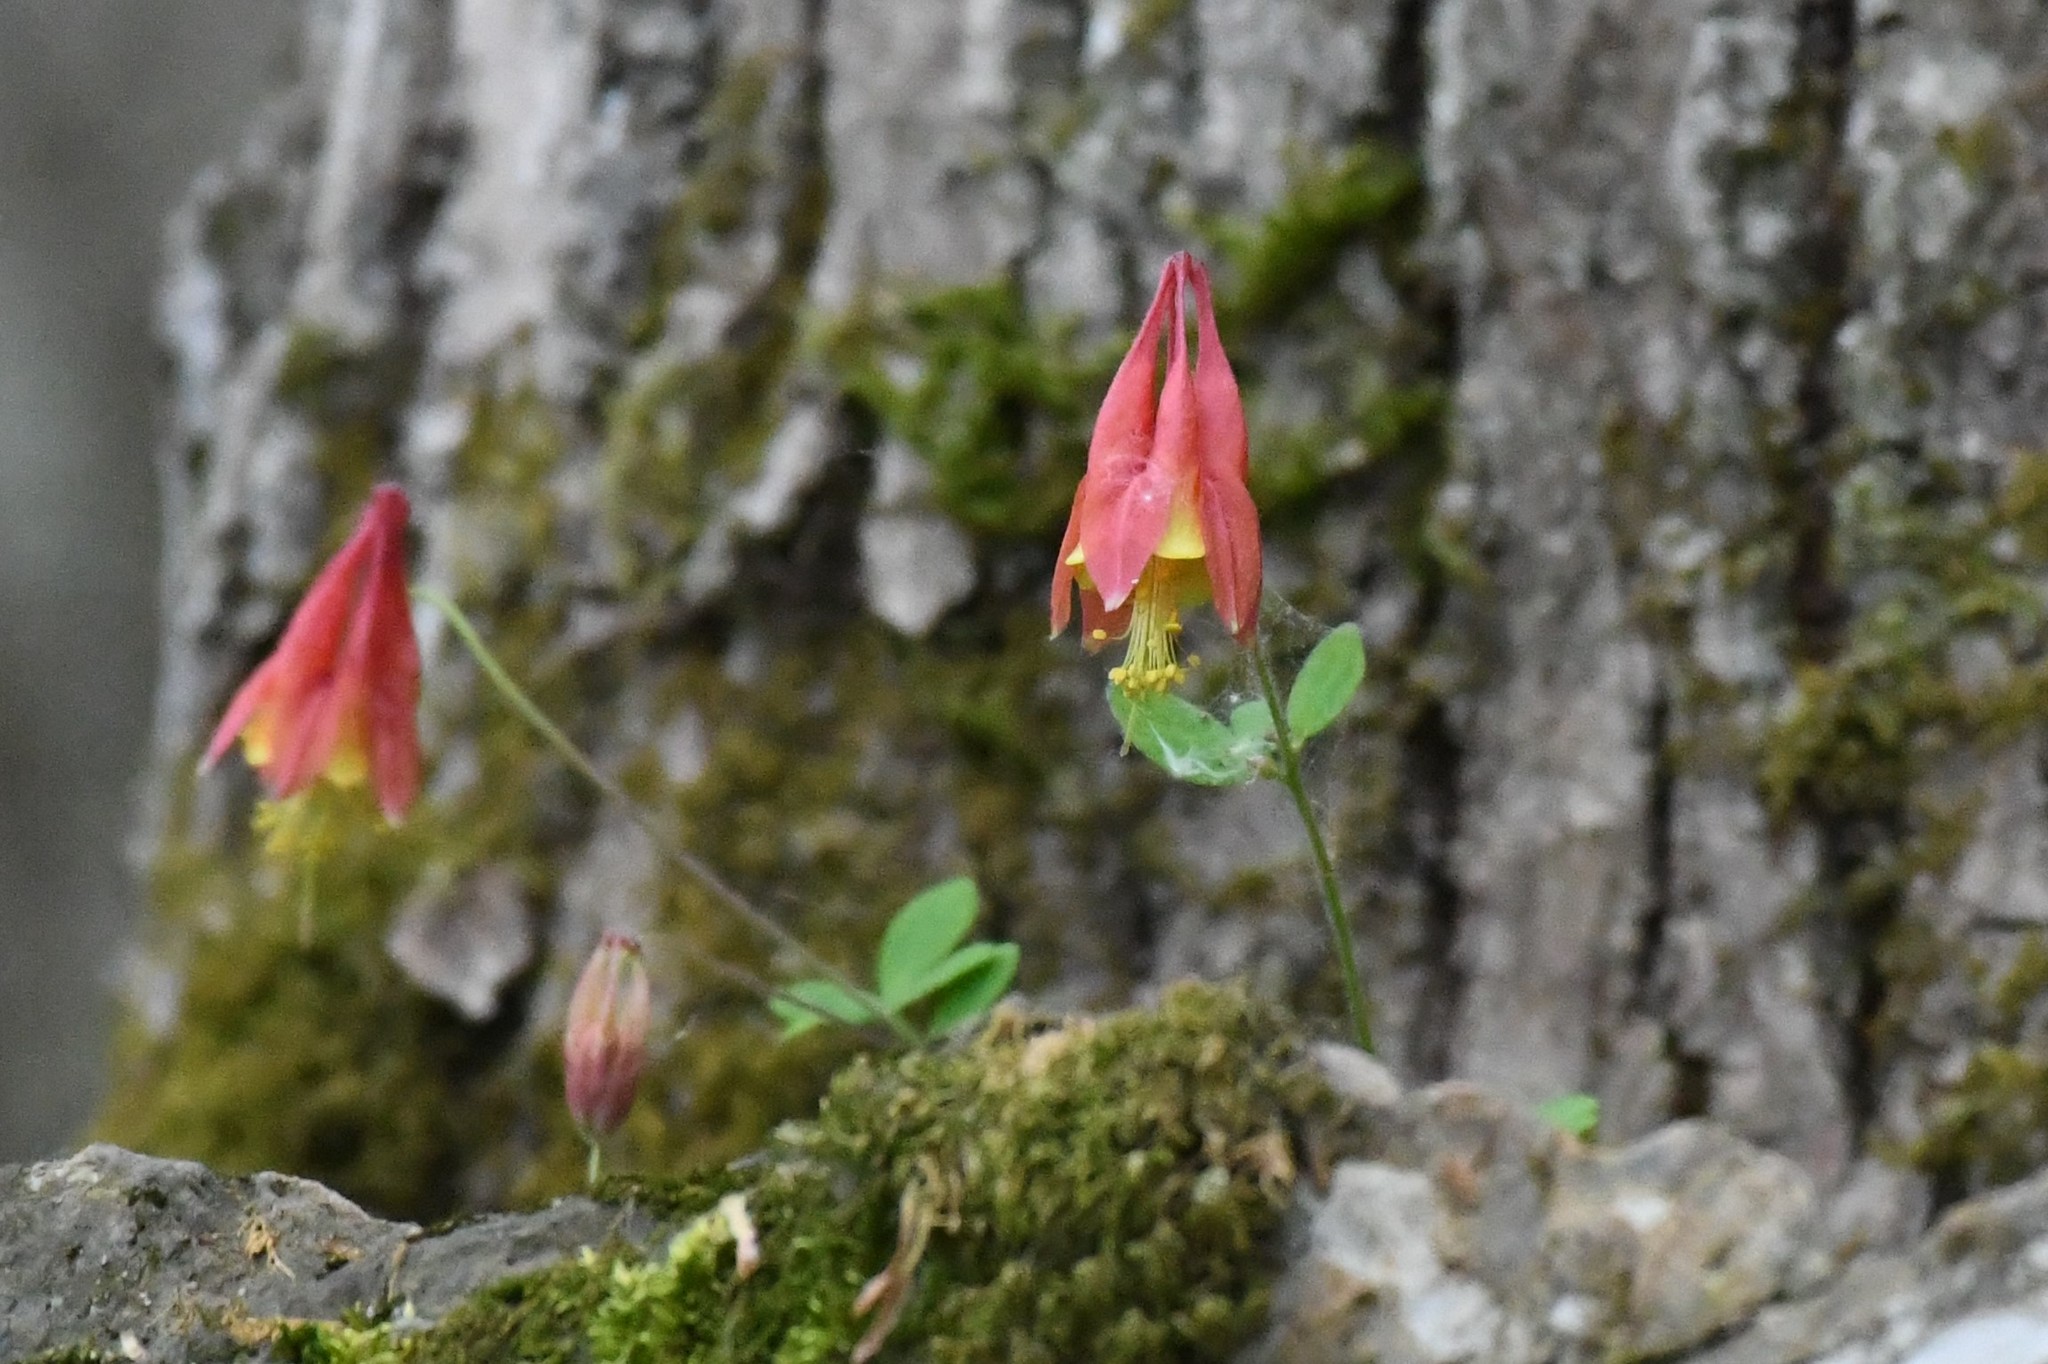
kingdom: Plantae
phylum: Tracheophyta
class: Magnoliopsida
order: Ranunculales
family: Ranunculaceae
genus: Aquilegia
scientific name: Aquilegia canadensis
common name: American columbine
